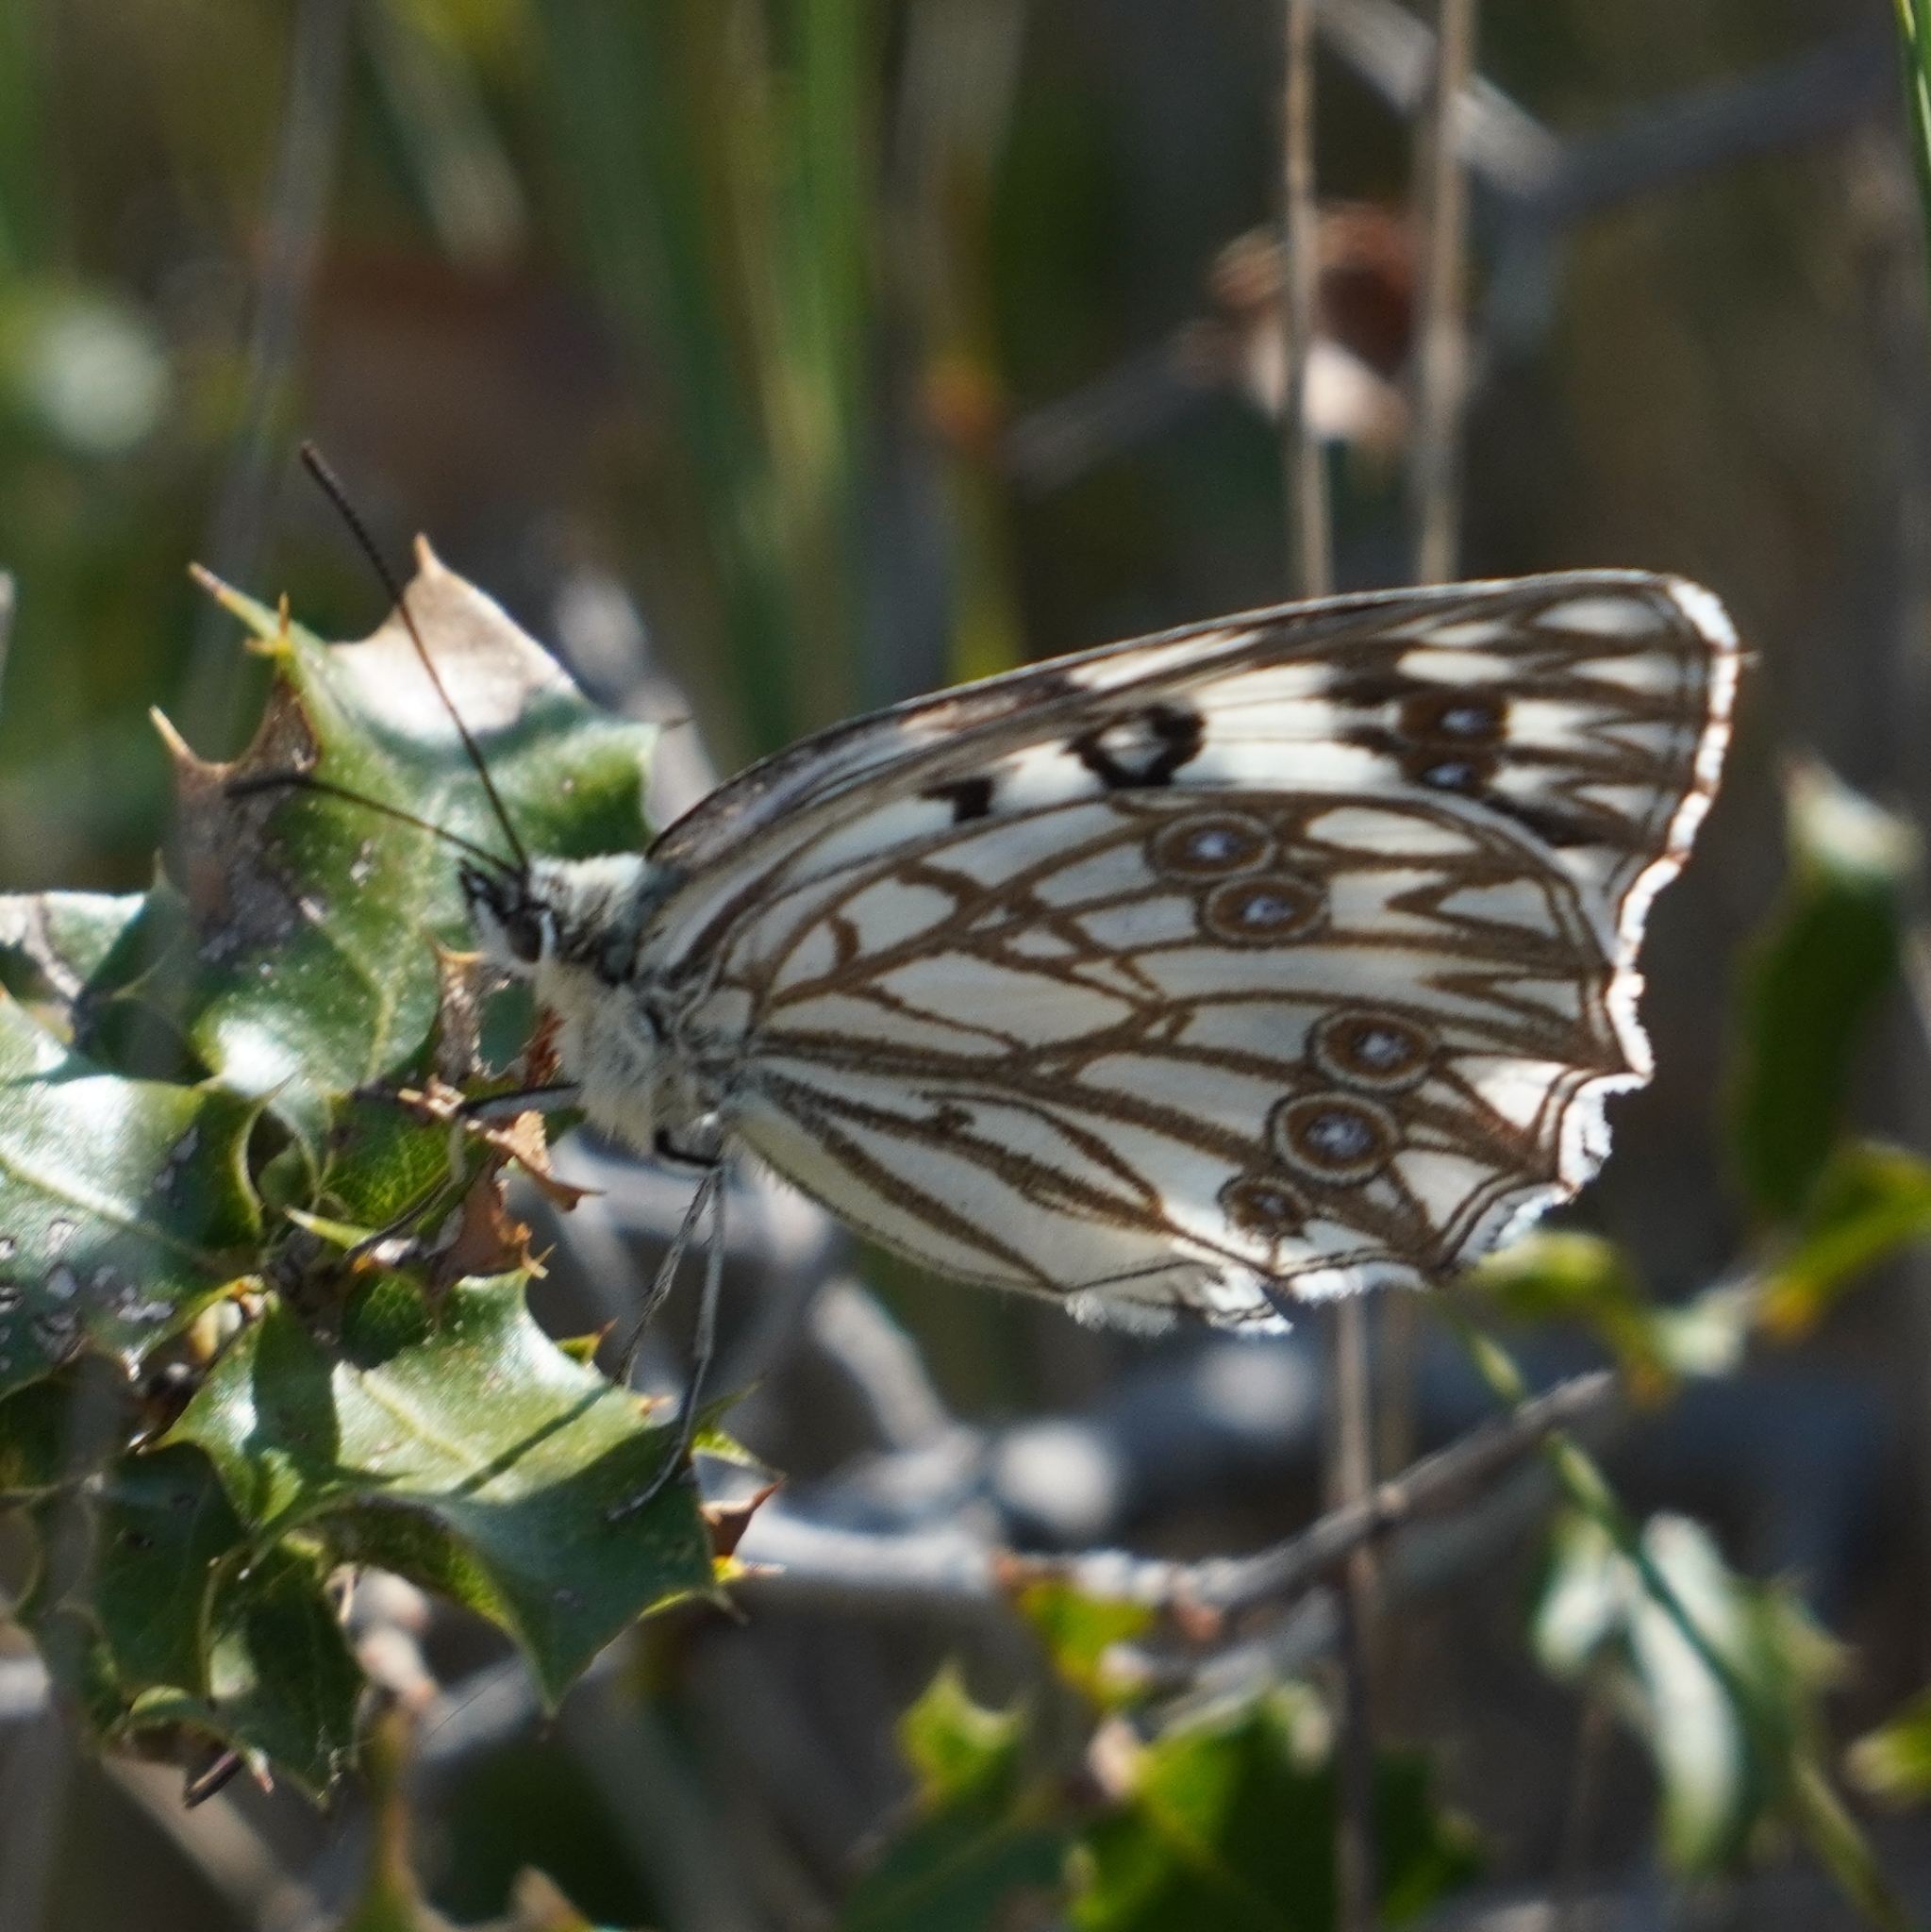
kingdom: Animalia
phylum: Arthropoda
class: Insecta
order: Lepidoptera
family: Nymphalidae
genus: Melanargia
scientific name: Melanargia occitanica
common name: Western marbled white
